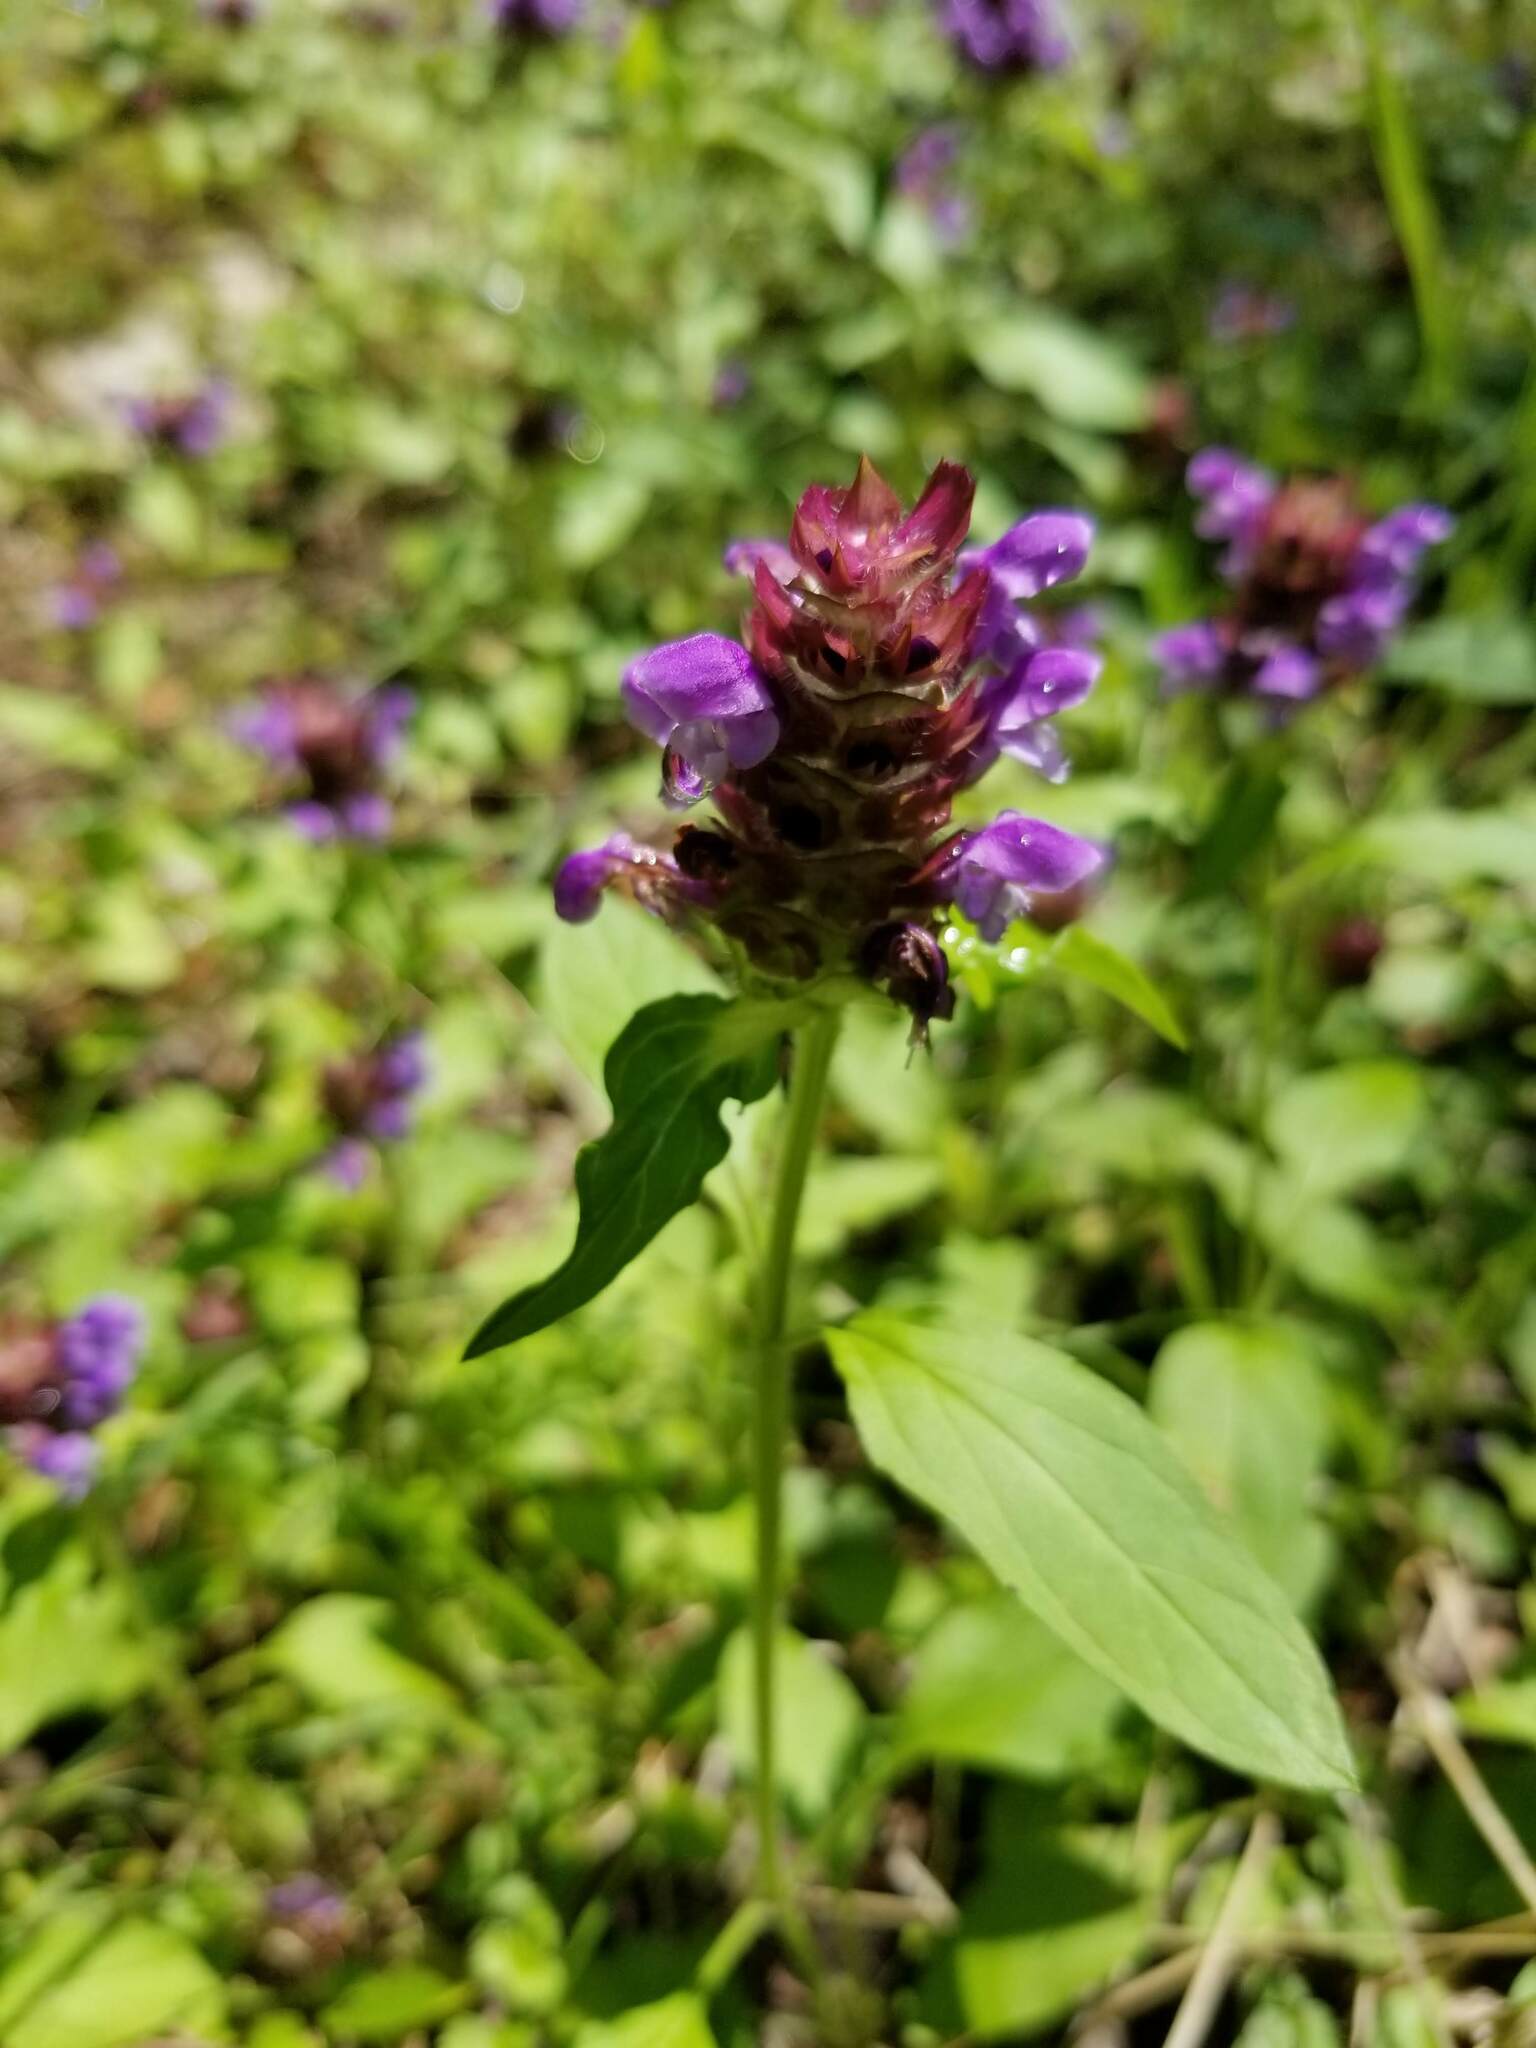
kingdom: Plantae
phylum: Tracheophyta
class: Magnoliopsida
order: Lamiales
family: Lamiaceae
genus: Prunella
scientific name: Prunella vulgaris
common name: Heal-all
